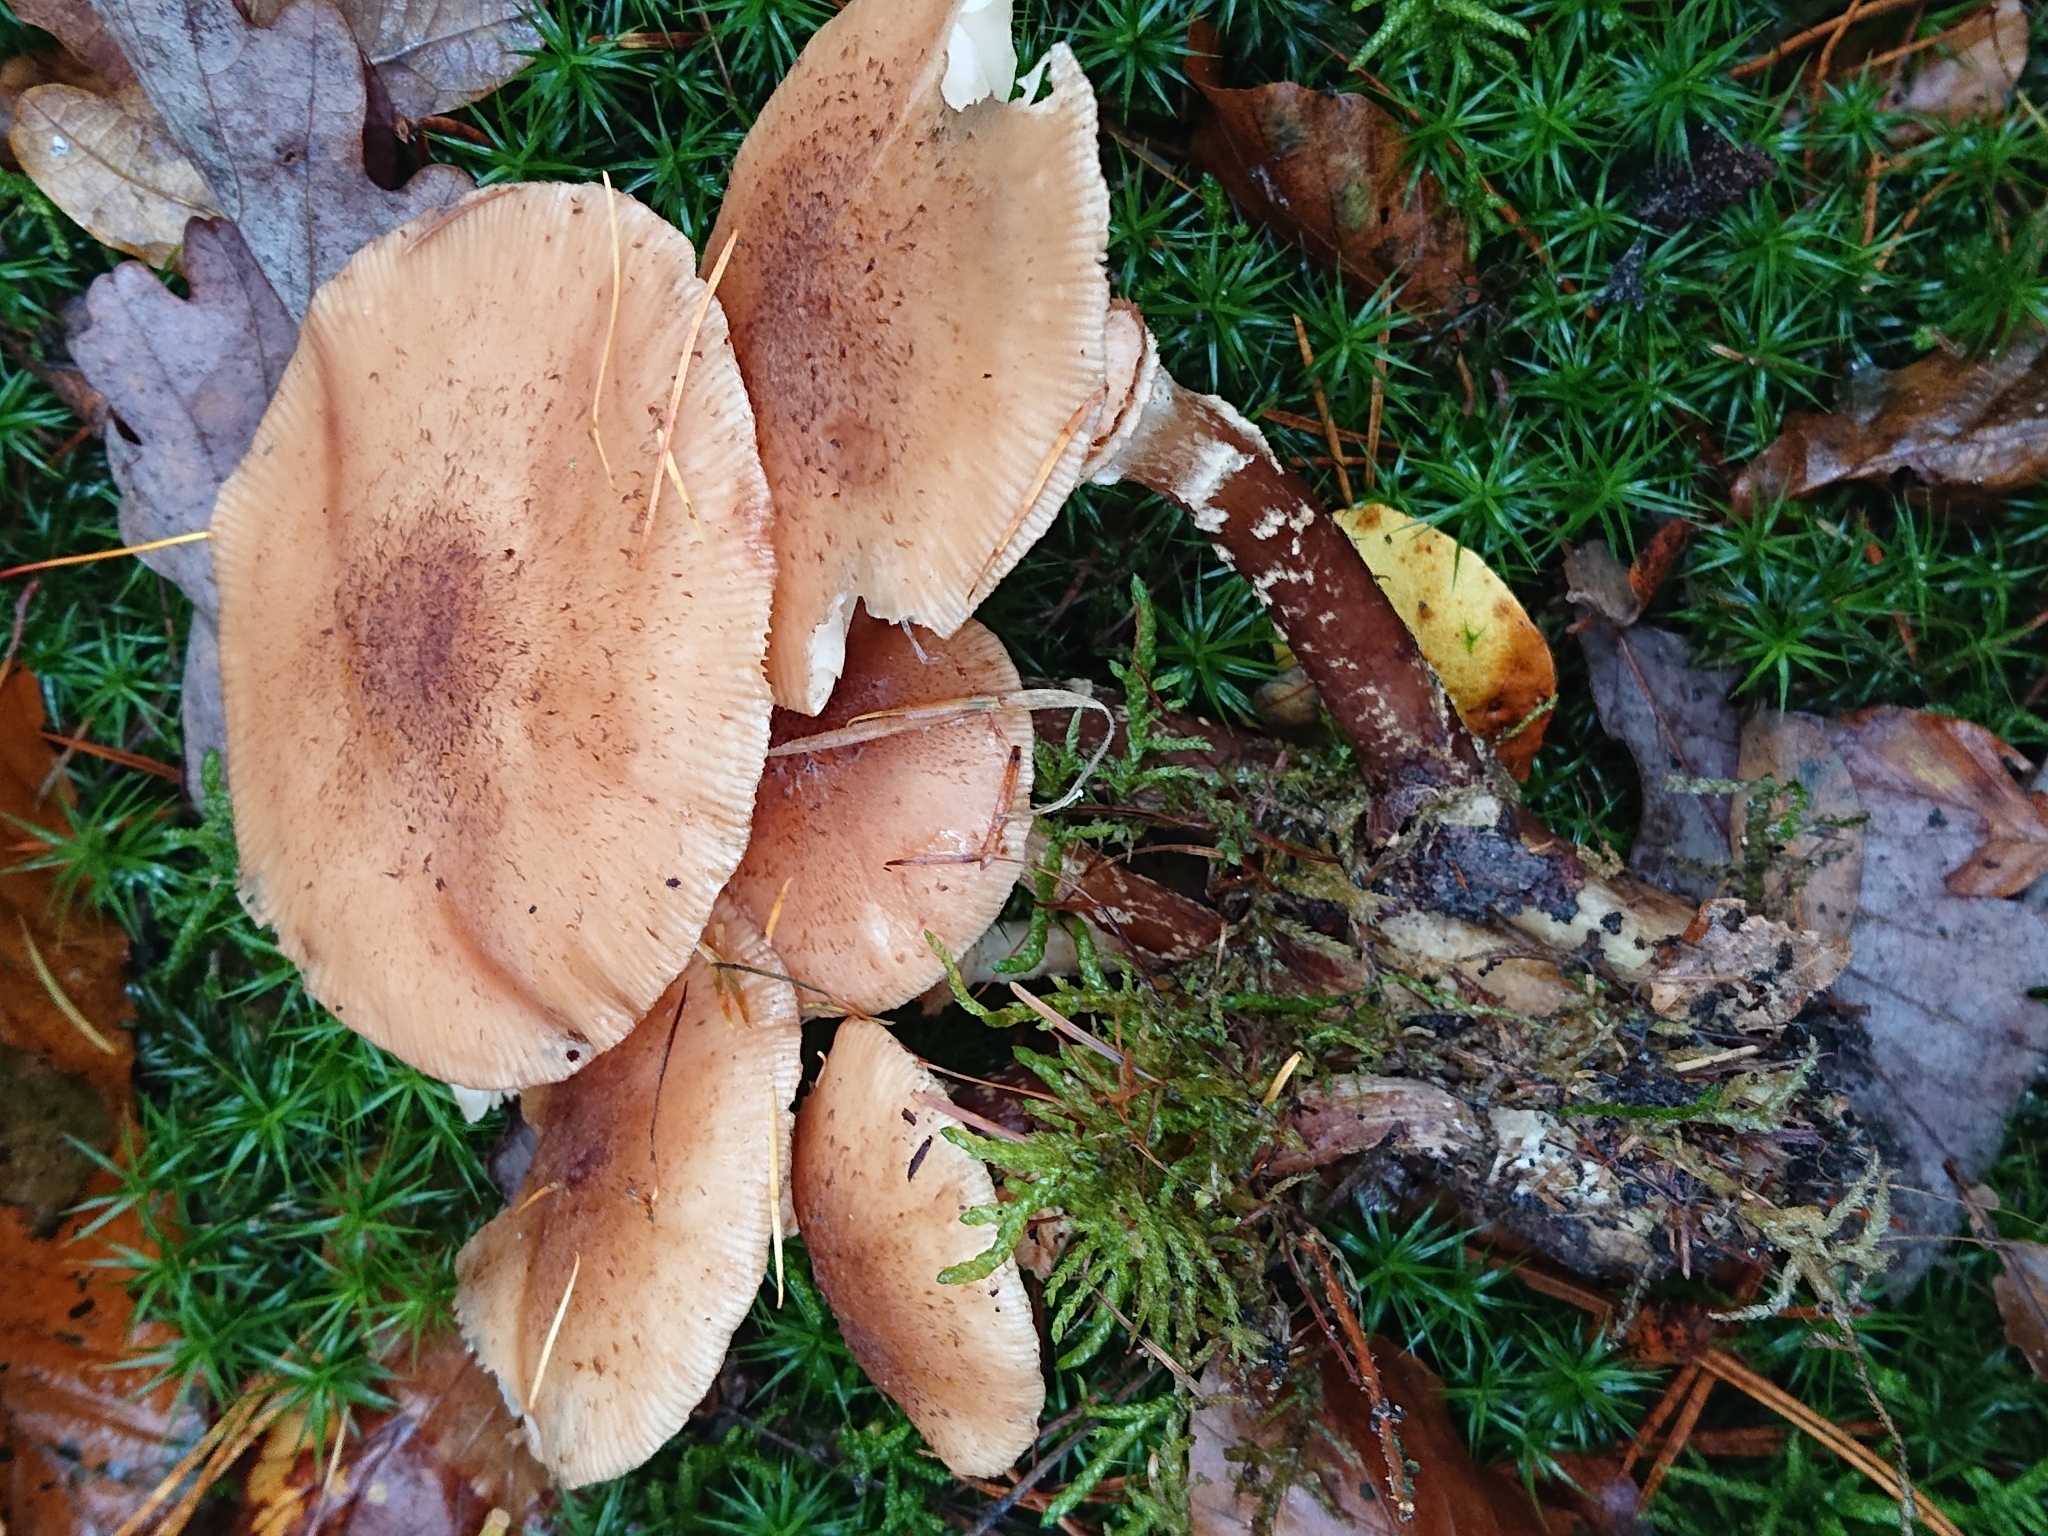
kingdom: Fungi
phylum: Basidiomycota
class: Agaricomycetes
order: Agaricales
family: Physalacriaceae
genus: Armillaria
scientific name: Armillaria ostoyae
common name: Dark honey fungus
